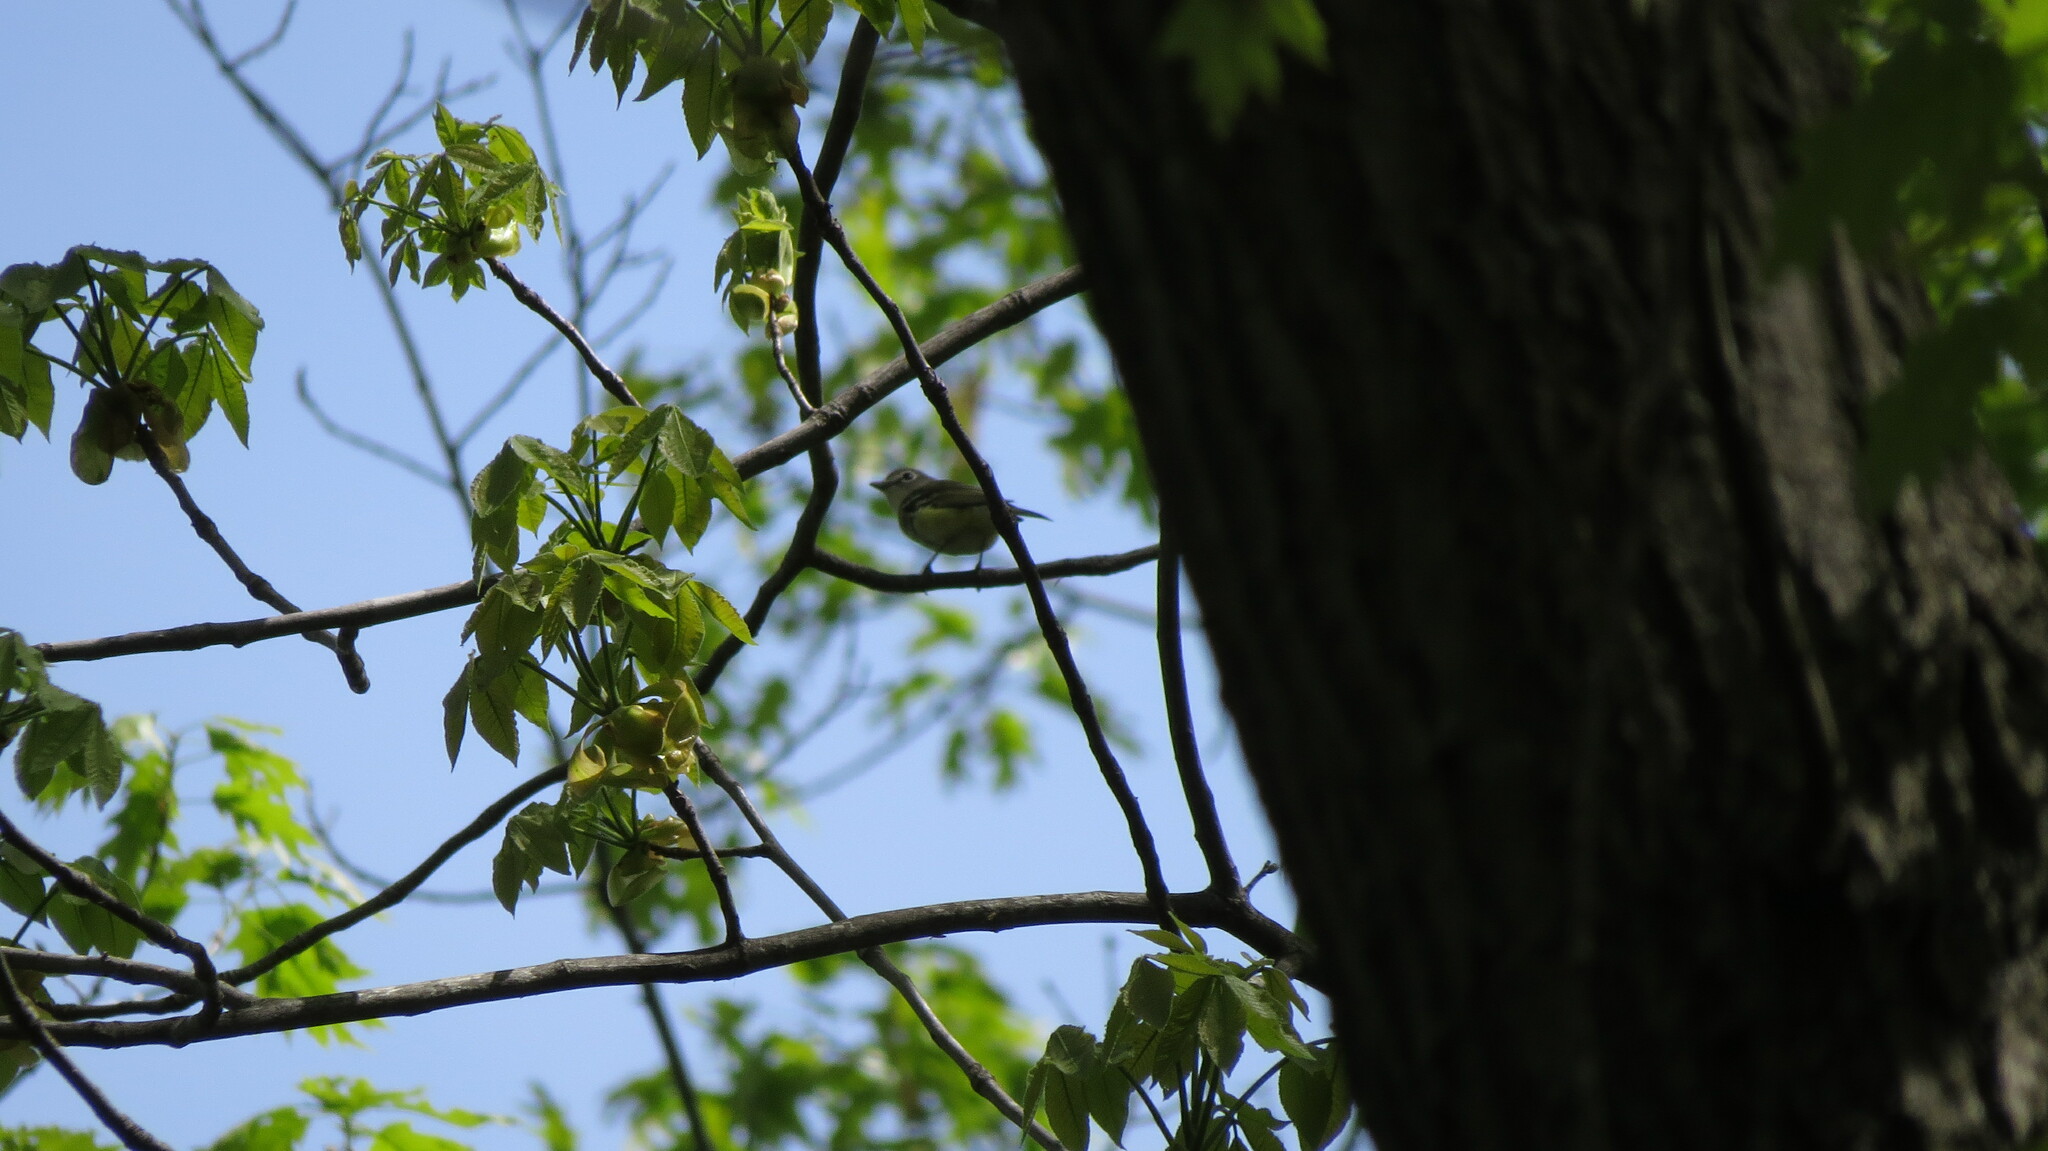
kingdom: Animalia
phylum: Chordata
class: Aves
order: Passeriformes
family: Vireonidae
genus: Vireo
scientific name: Vireo solitarius
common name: Blue-headed vireo
